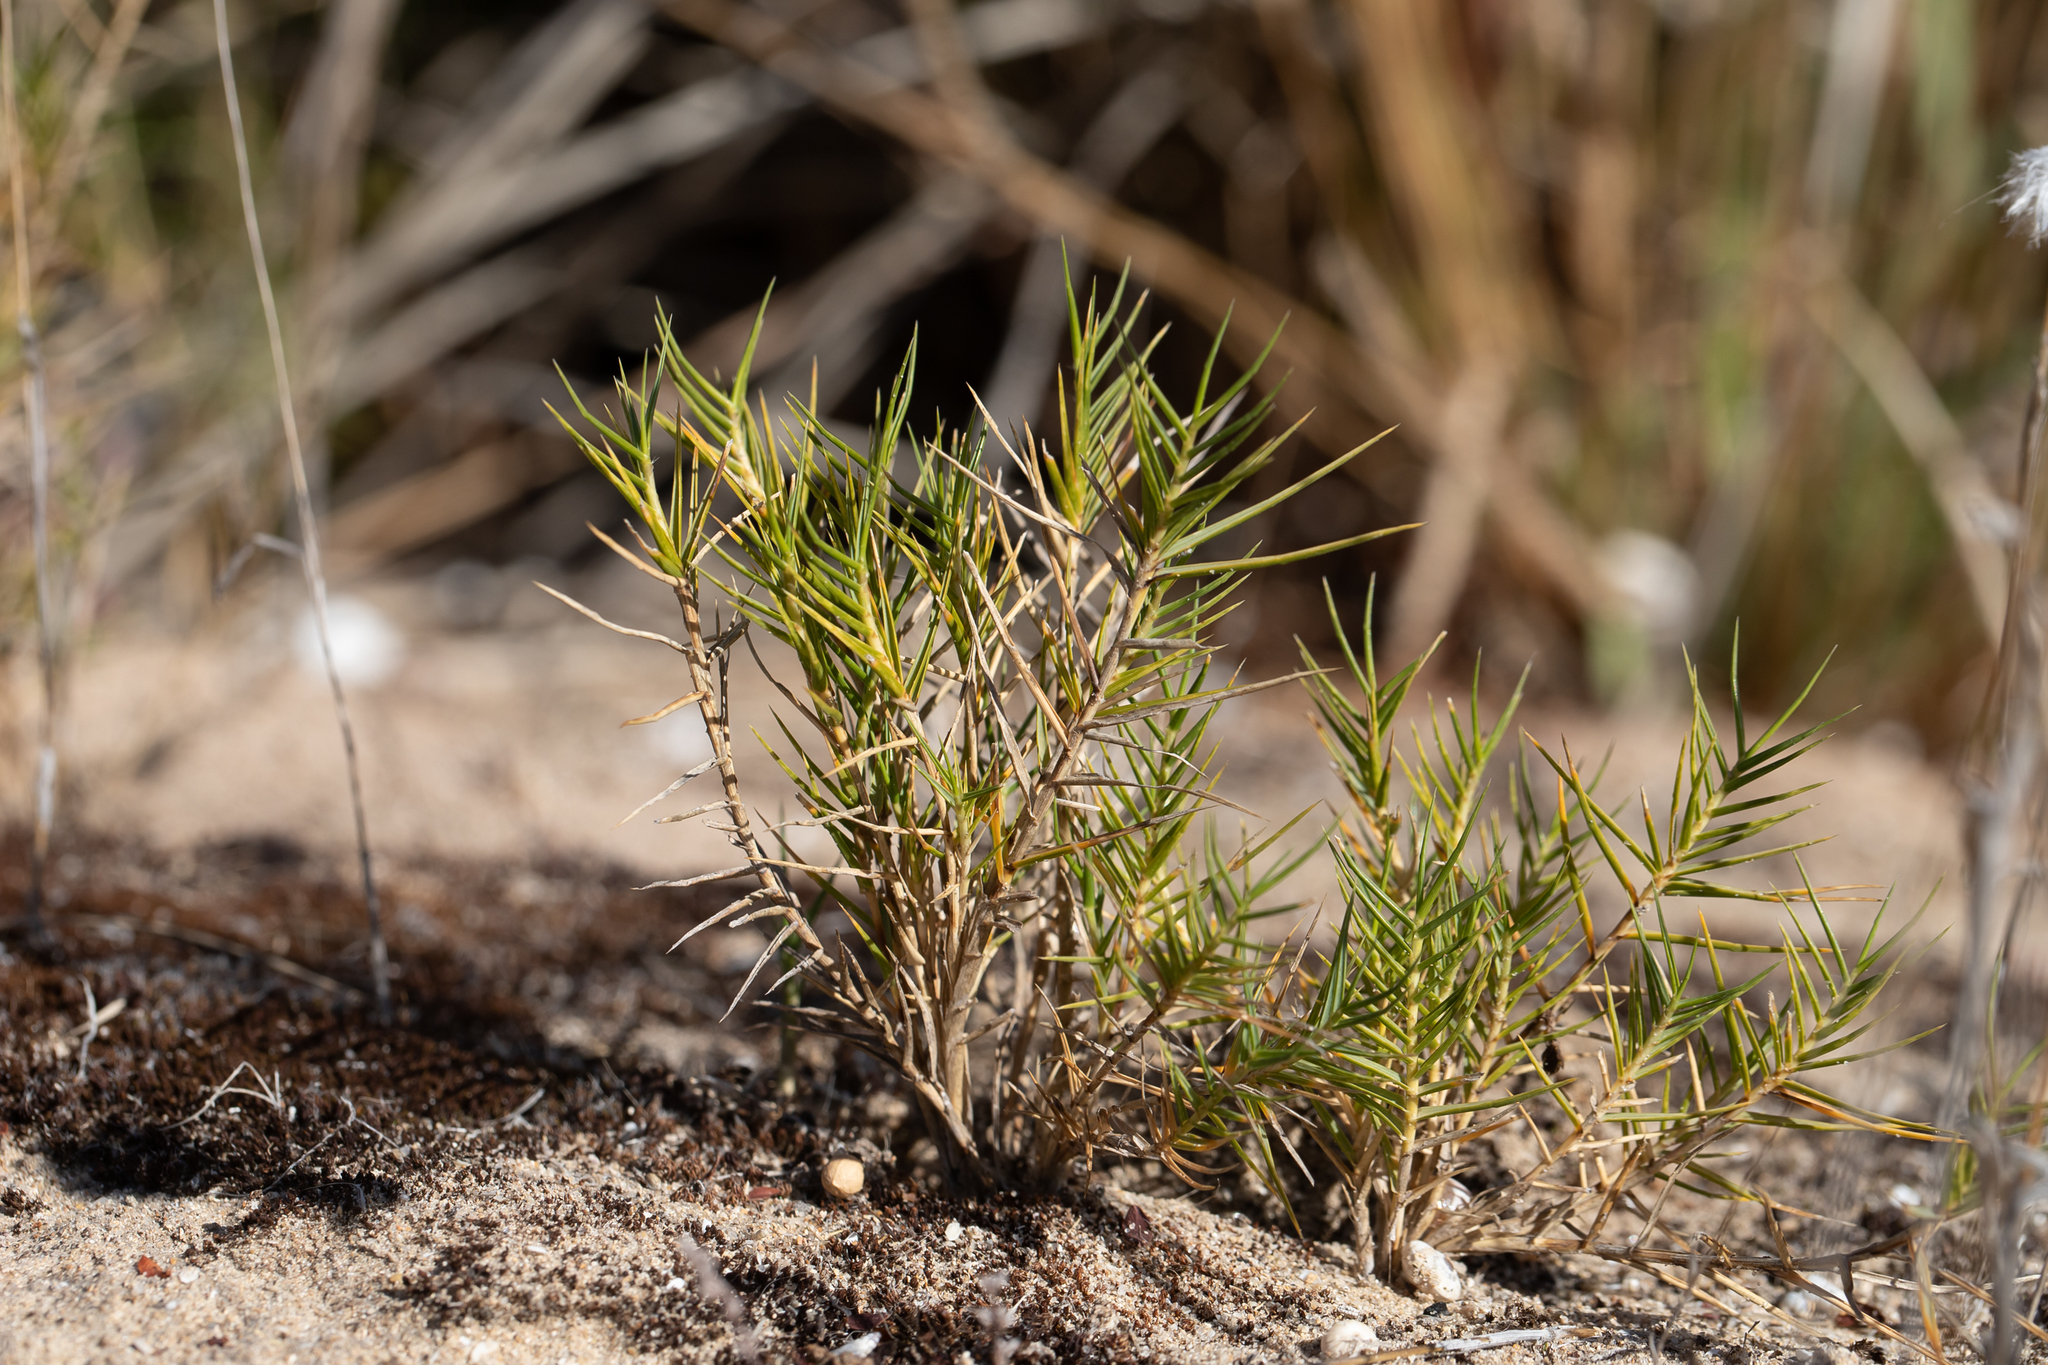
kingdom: Plantae
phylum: Tracheophyta
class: Liliopsida
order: Poales
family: Poaceae
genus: Distichlis
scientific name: Distichlis distichophylla
